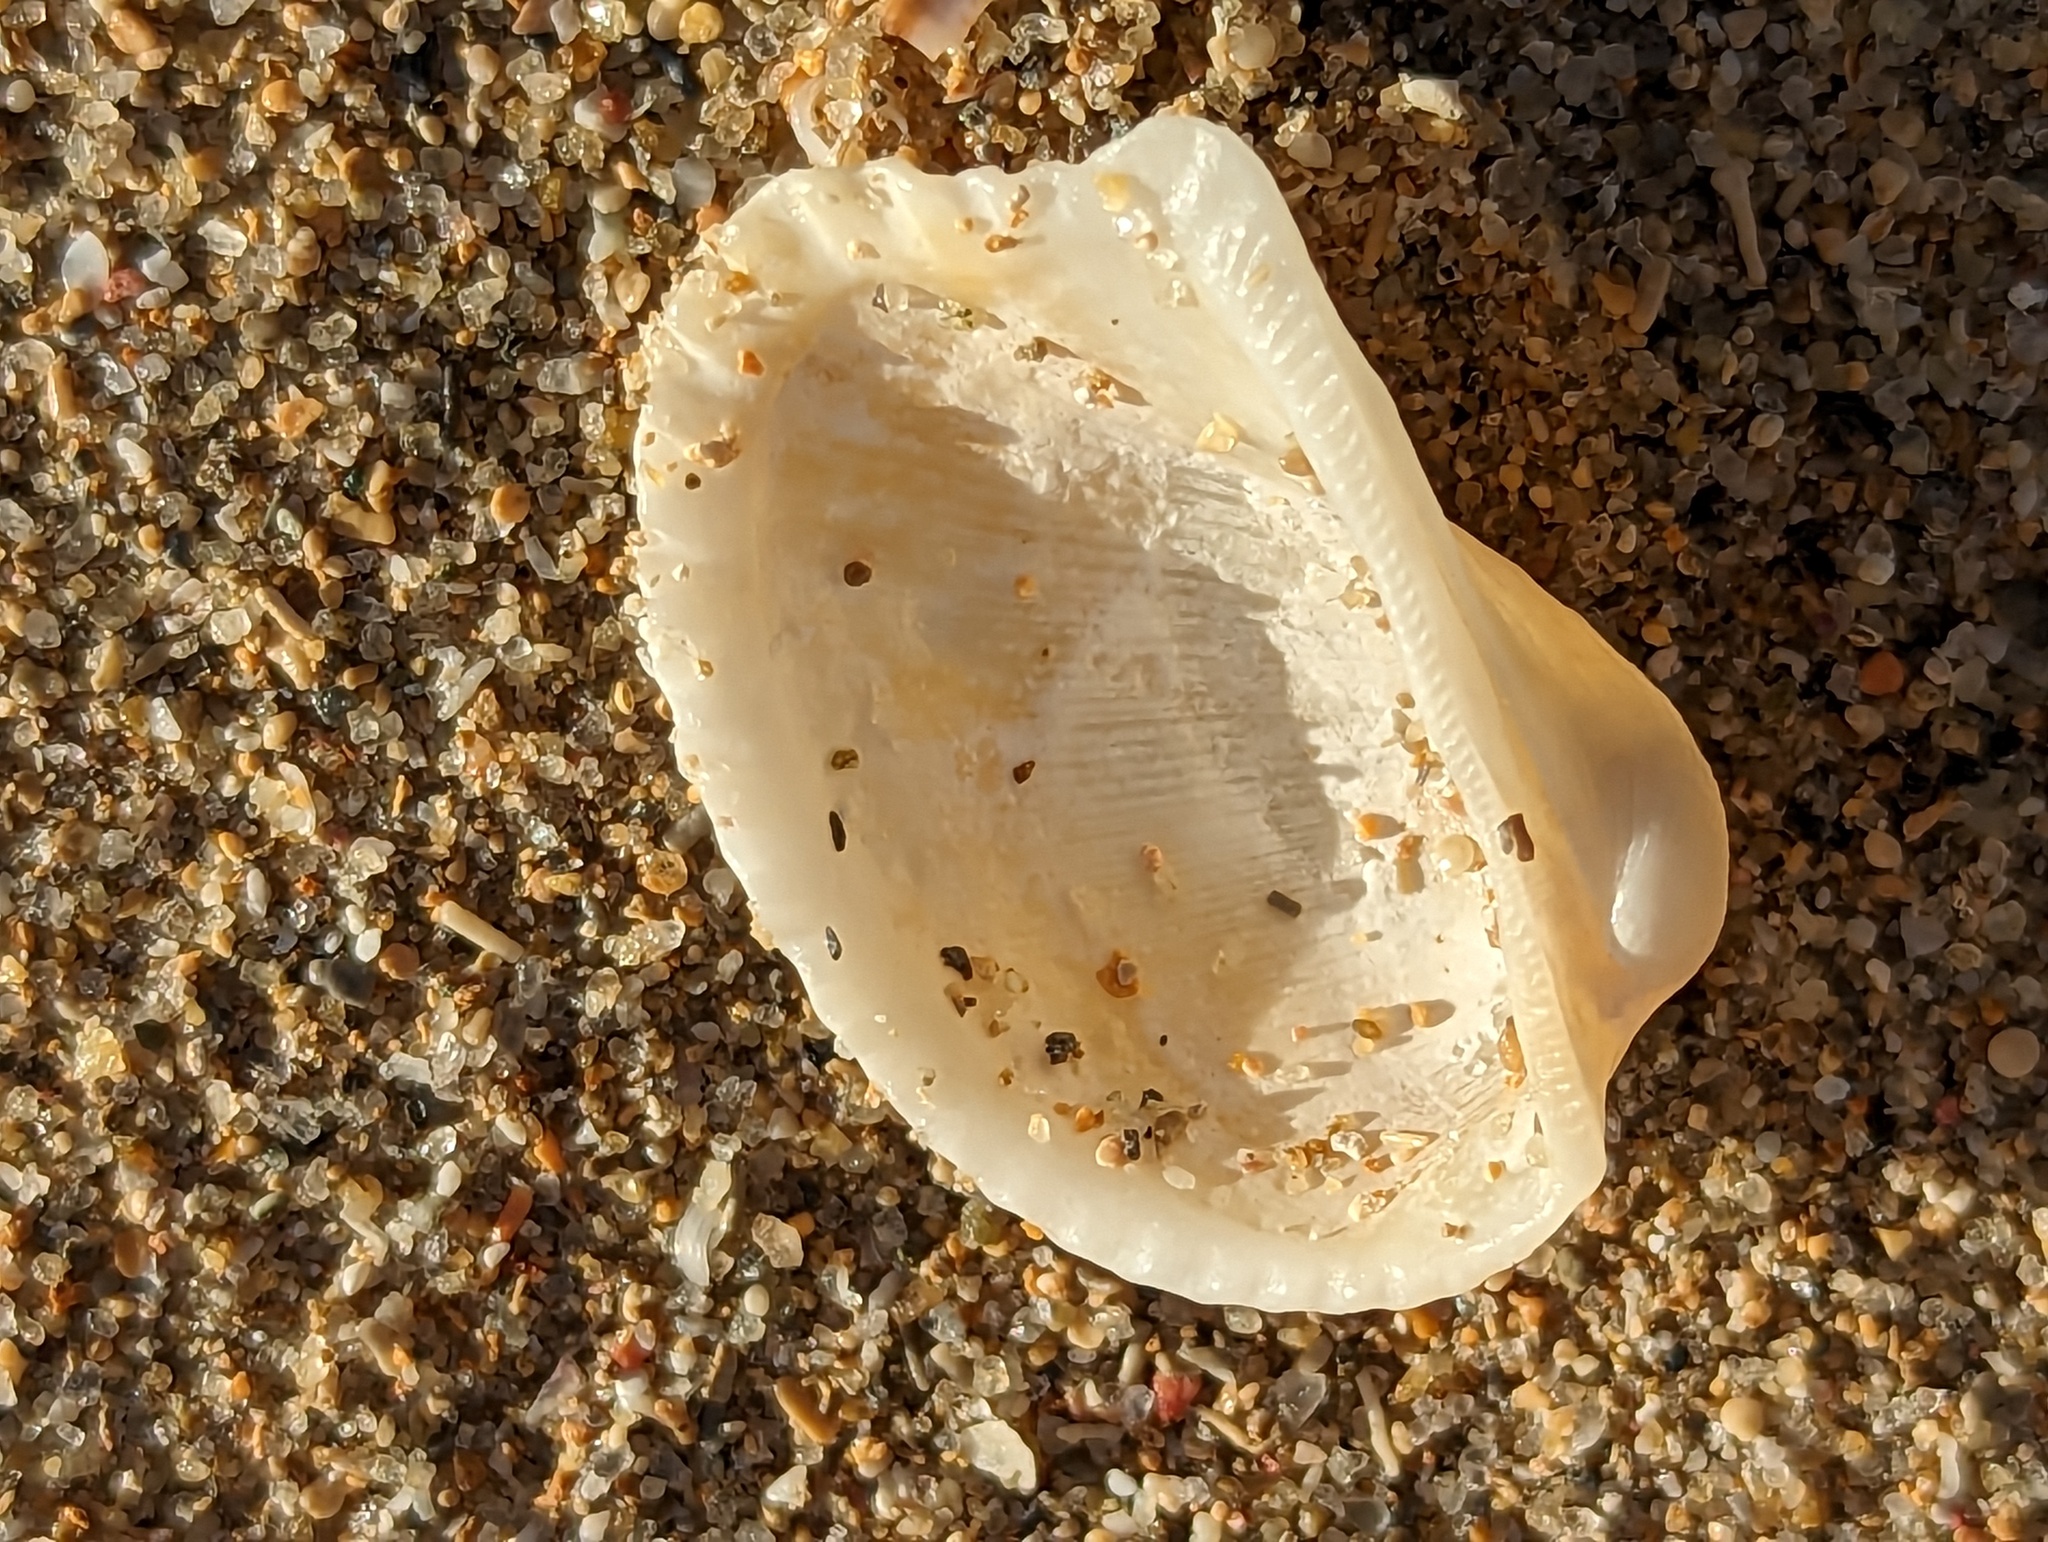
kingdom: Animalia
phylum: Mollusca
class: Bivalvia
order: Arcida
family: Arcidae
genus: Anadara
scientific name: Anadara notabilis
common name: Eared ark
